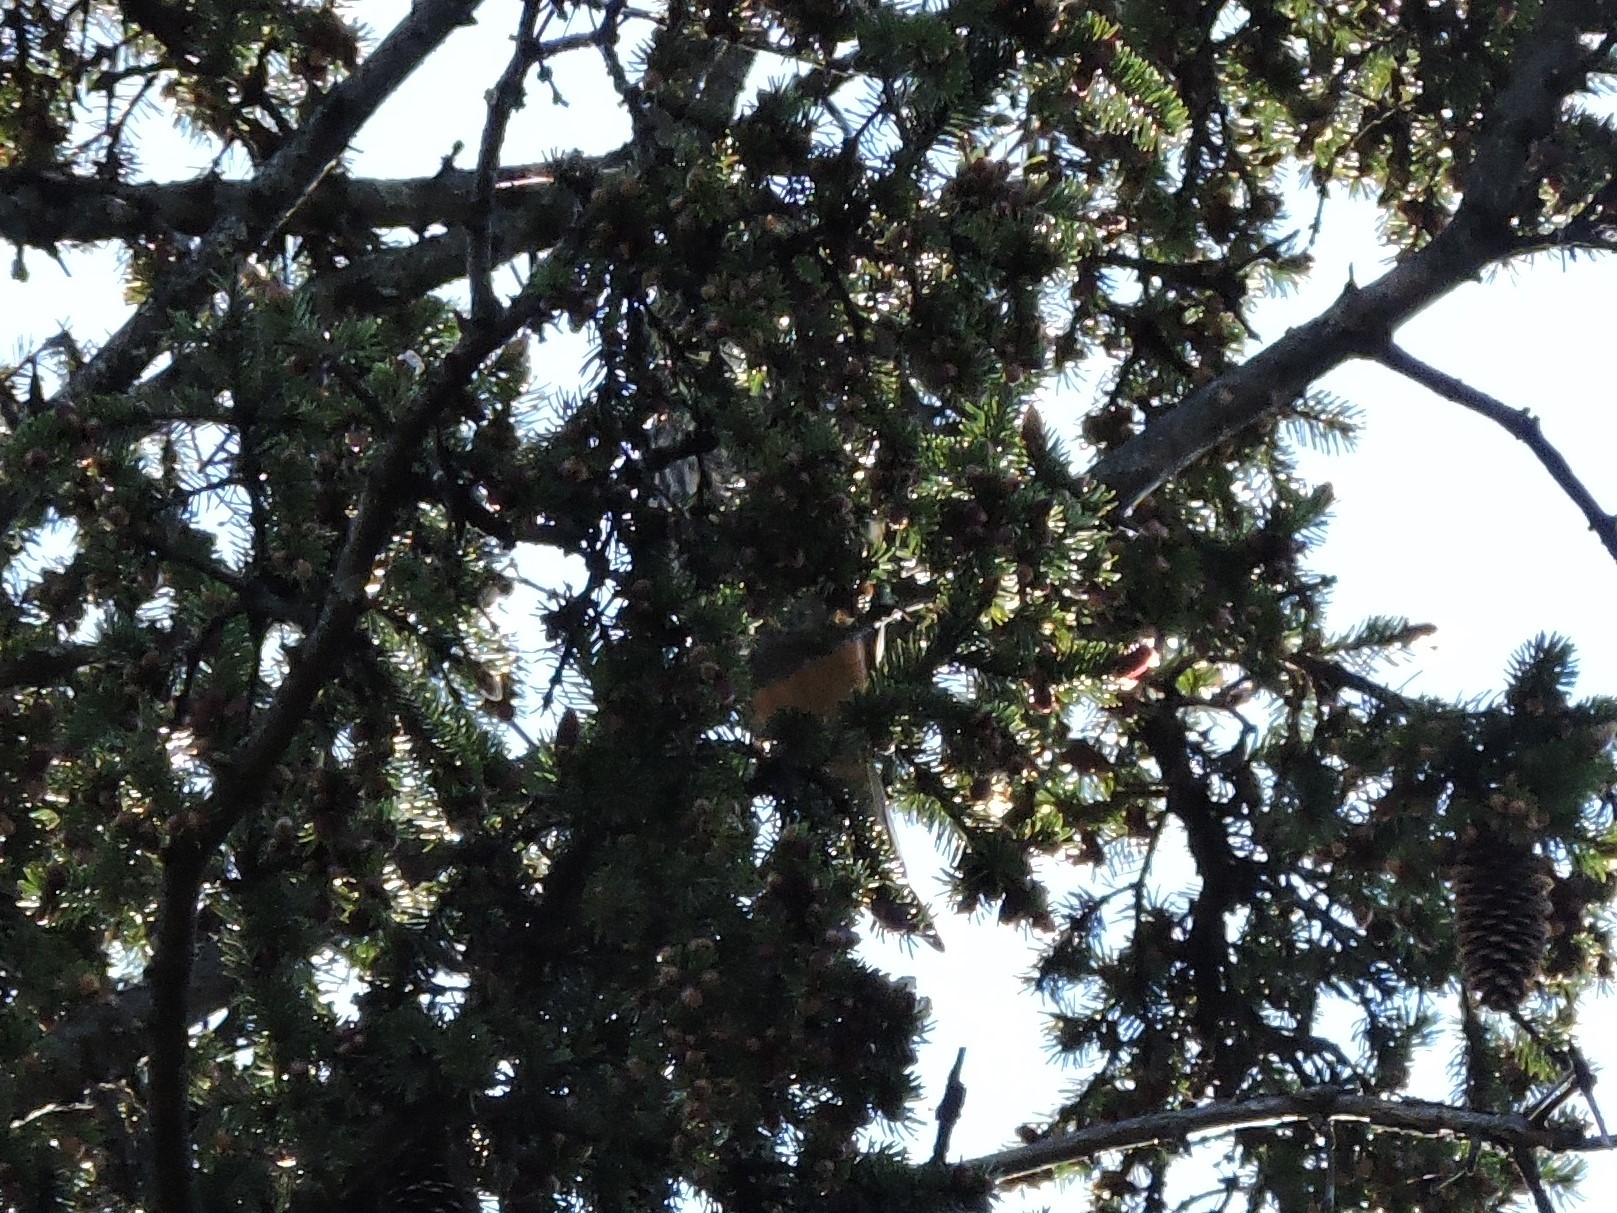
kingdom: Animalia
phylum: Chordata
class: Aves
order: Falconiformes
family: Falconidae
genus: Falco
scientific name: Falco subbuteo
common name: Eurasian hobby
